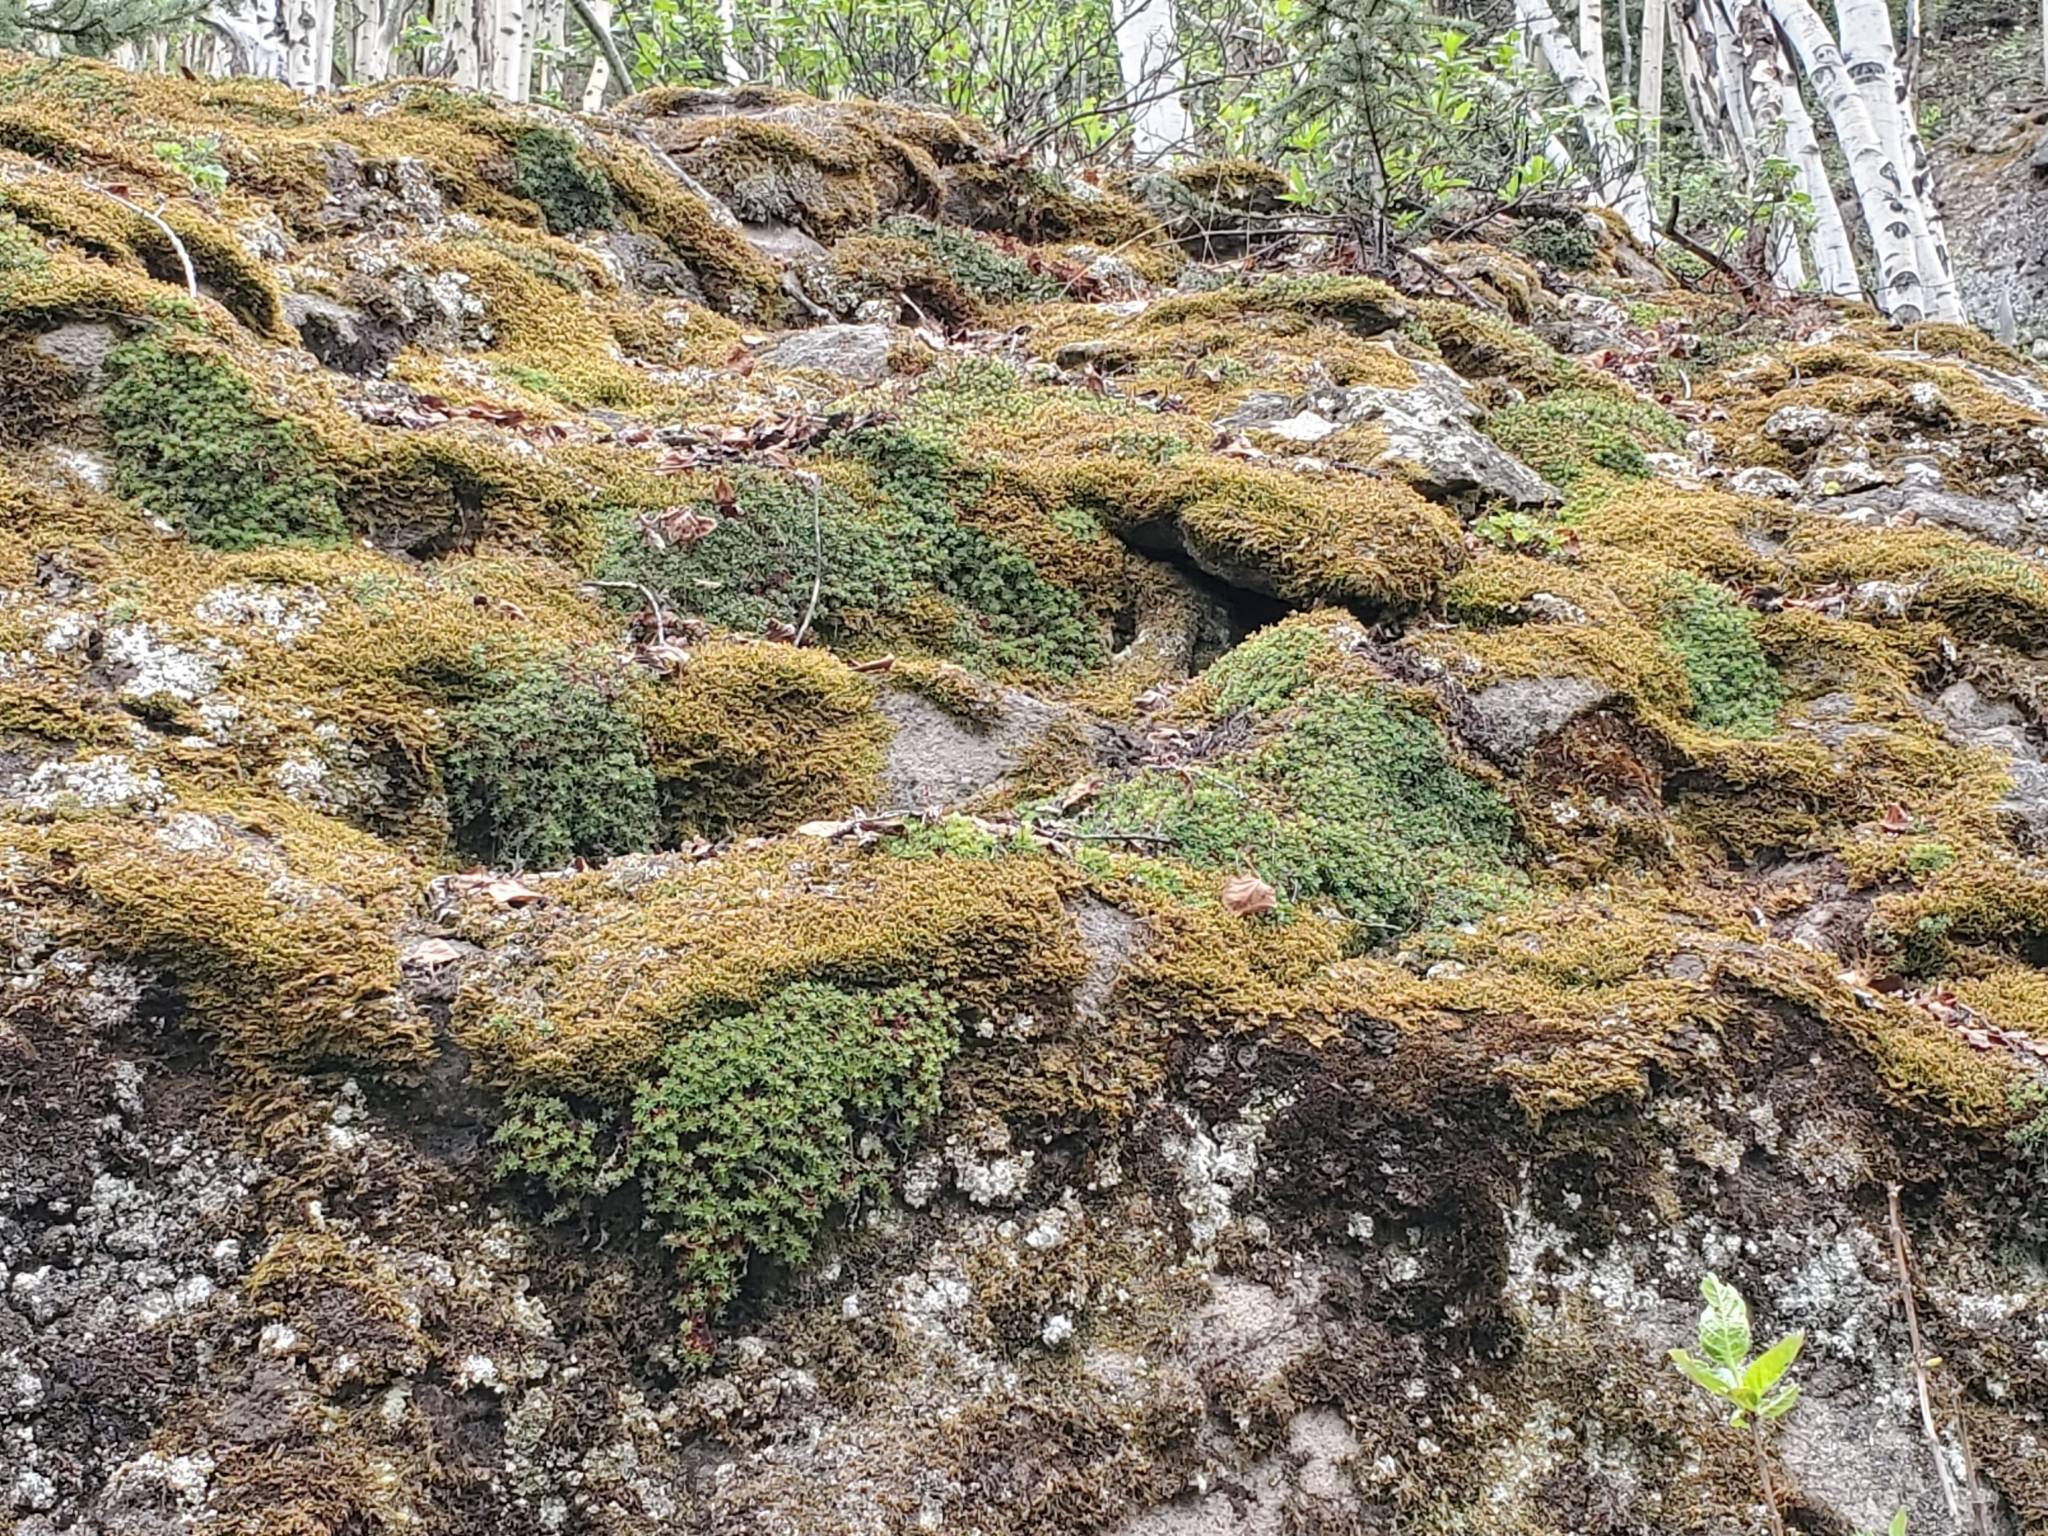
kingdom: Plantae
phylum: Tracheophyta
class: Magnoliopsida
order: Saxifragales
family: Saxifragaceae
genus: Saxifraga
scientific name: Saxifraga bronchialis
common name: Matted saxifrage
